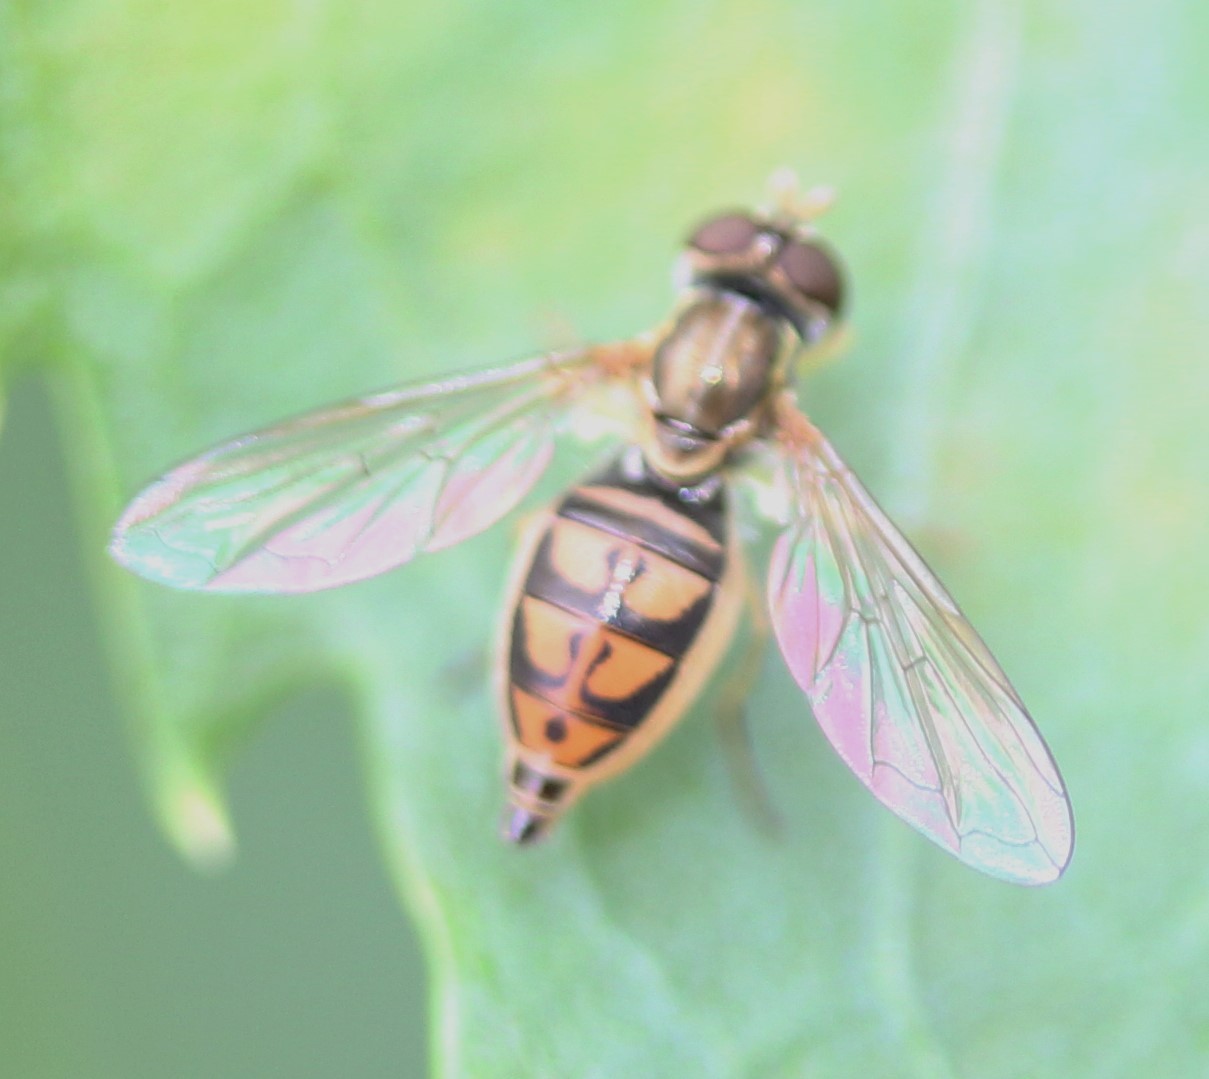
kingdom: Animalia
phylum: Arthropoda
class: Insecta
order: Diptera
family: Syrphidae
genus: Toxomerus
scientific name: Toxomerus marginatus
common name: Syrphid fly
